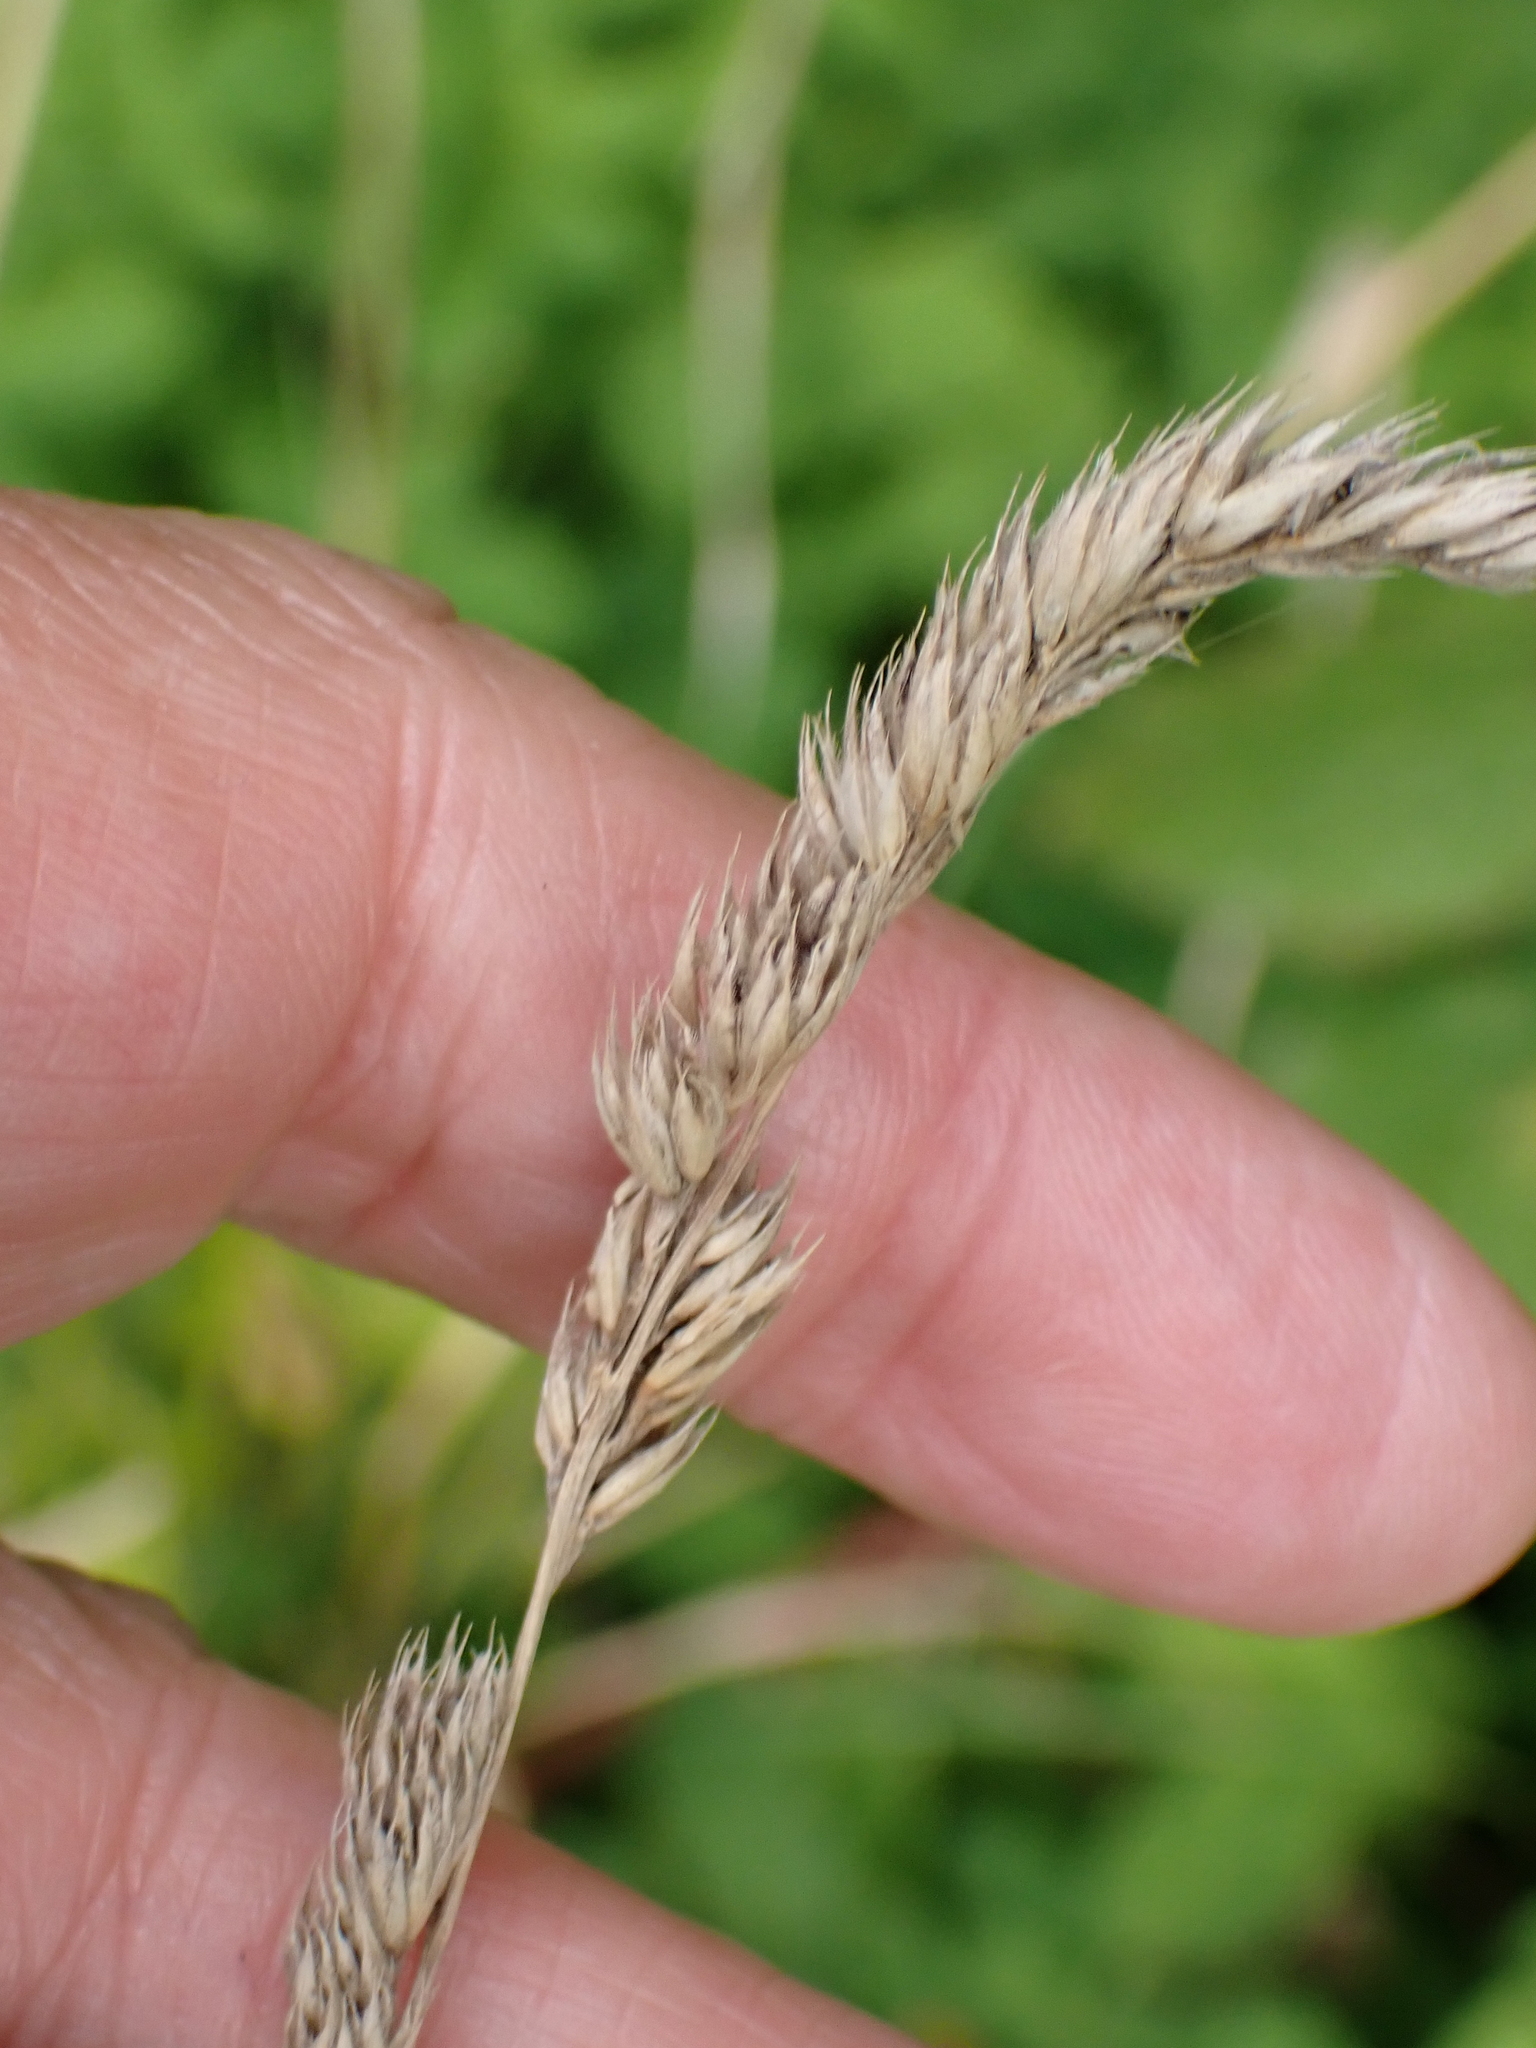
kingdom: Plantae
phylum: Tracheophyta
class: Liliopsida
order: Poales
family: Poaceae
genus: Dactylis
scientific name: Dactylis glomerata
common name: Orchardgrass
